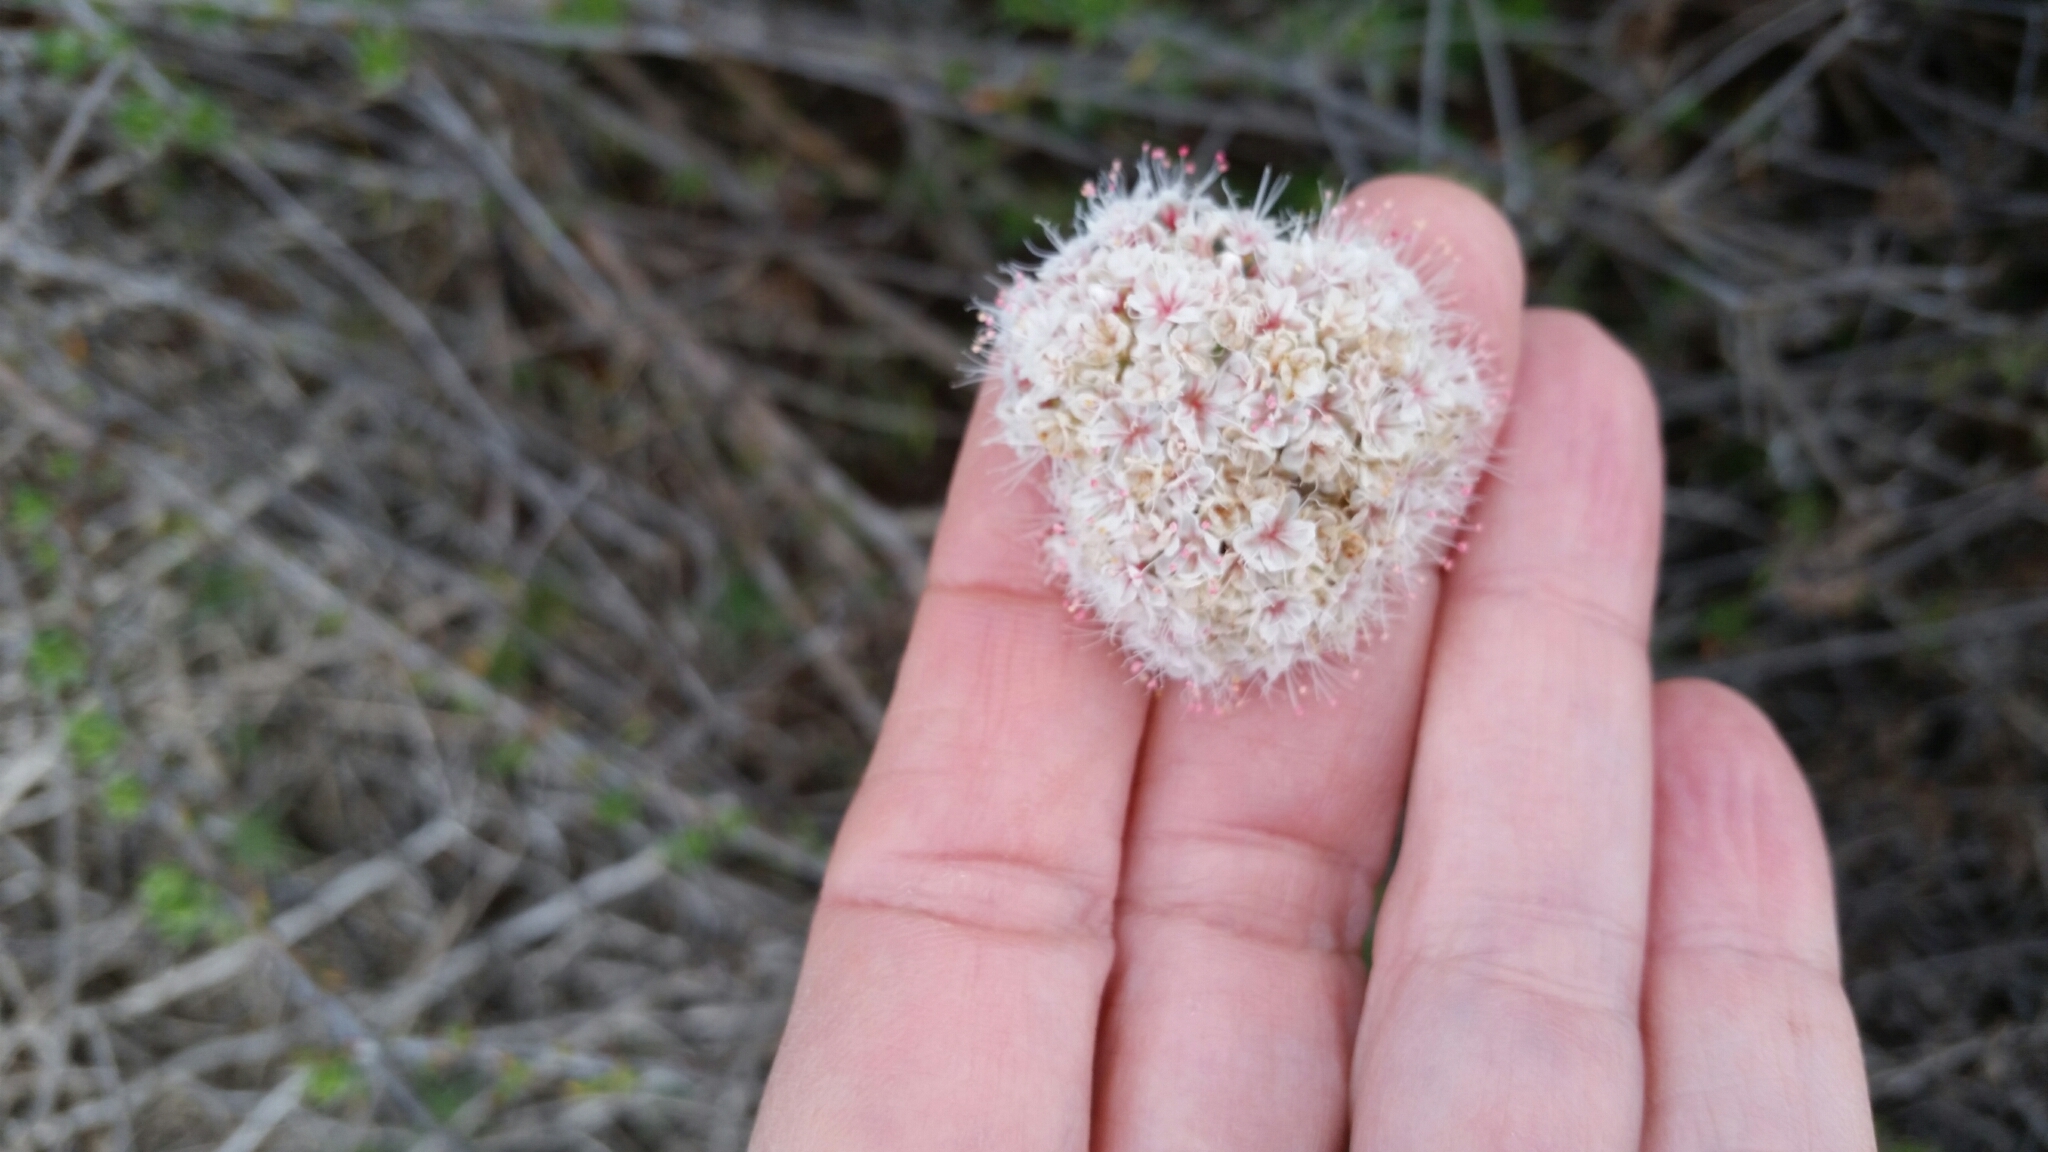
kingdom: Plantae
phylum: Tracheophyta
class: Magnoliopsida
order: Caryophyllales
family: Polygonaceae
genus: Eriogonum
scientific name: Eriogonum fasciculatum
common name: California wild buckwheat
